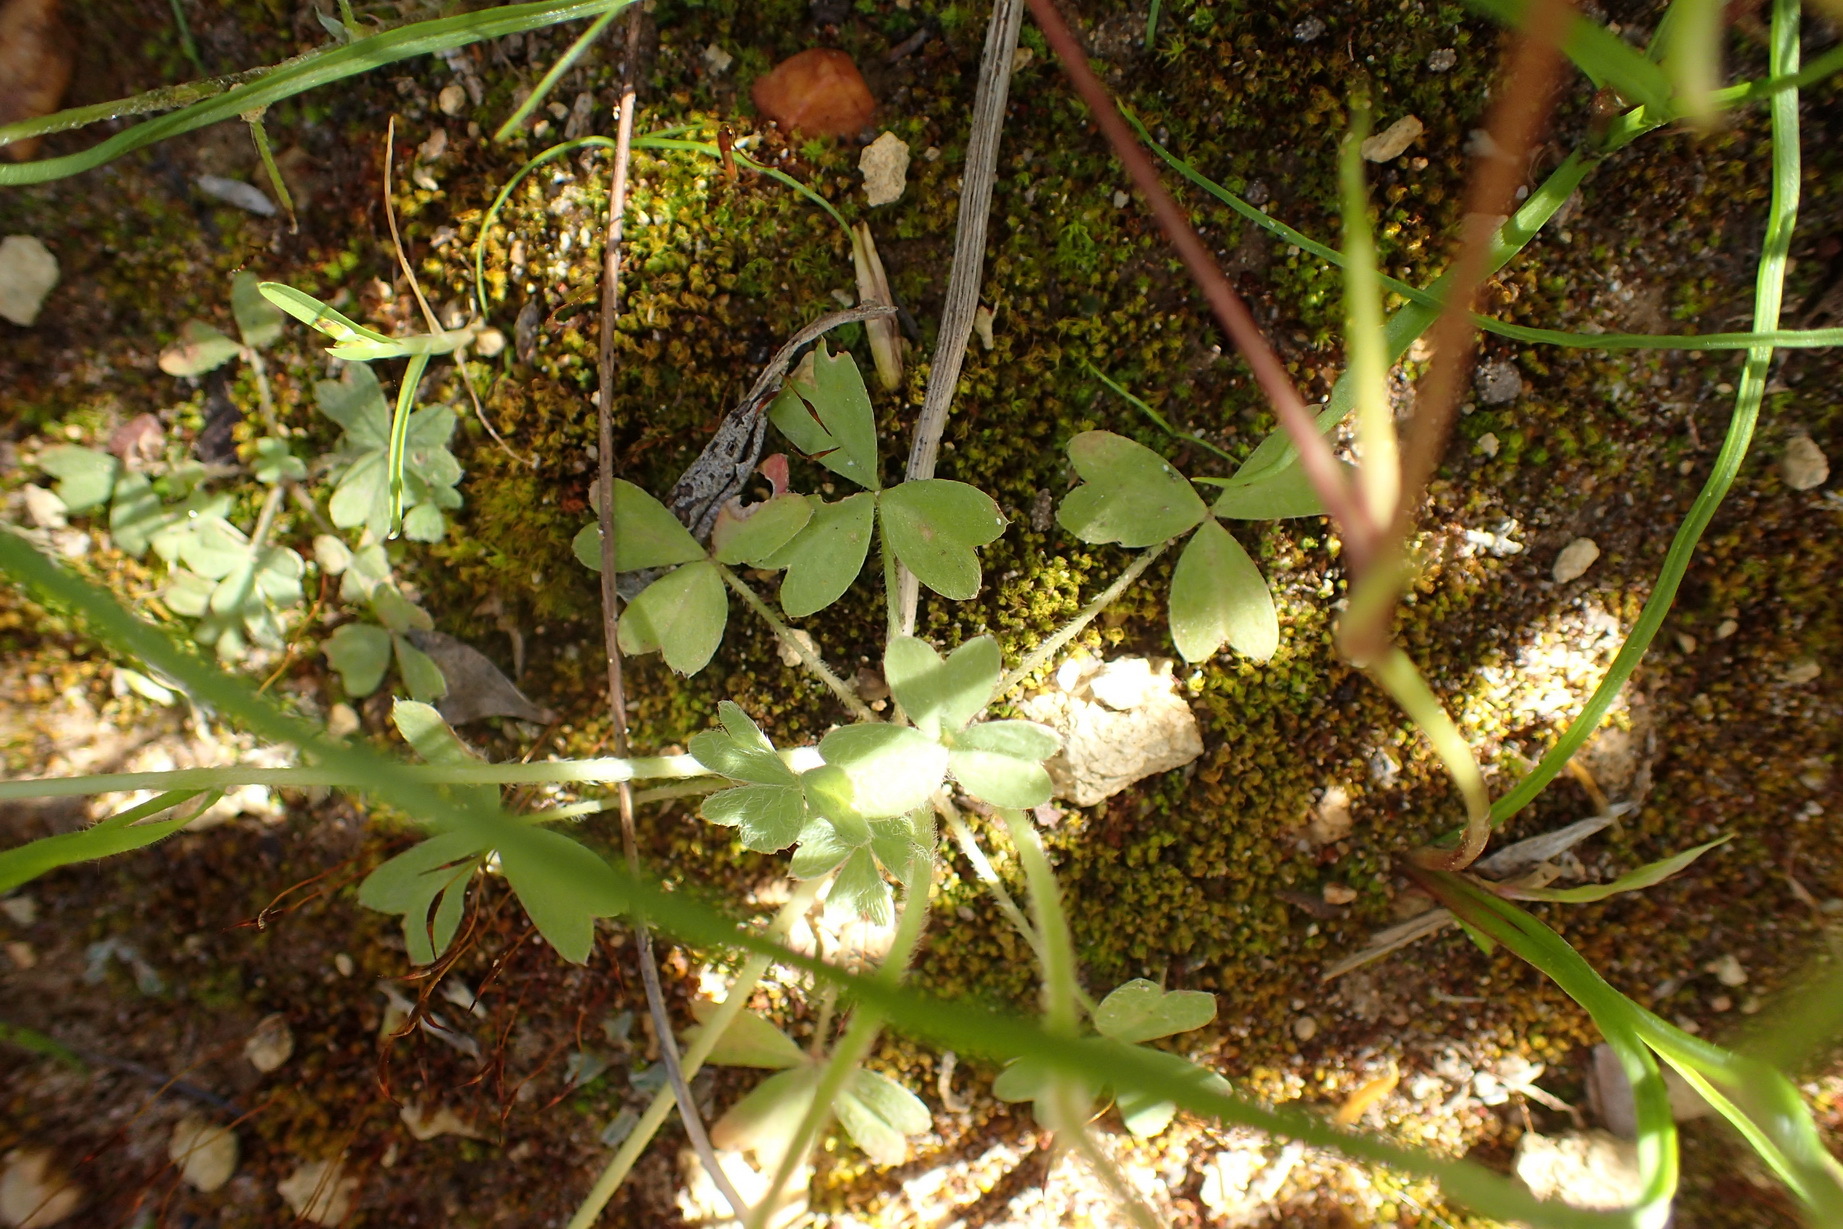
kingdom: Plantae
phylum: Tracheophyta
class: Magnoliopsida
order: Oxalidales
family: Oxalidaceae
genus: Oxalis
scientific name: Oxalis obtusa
